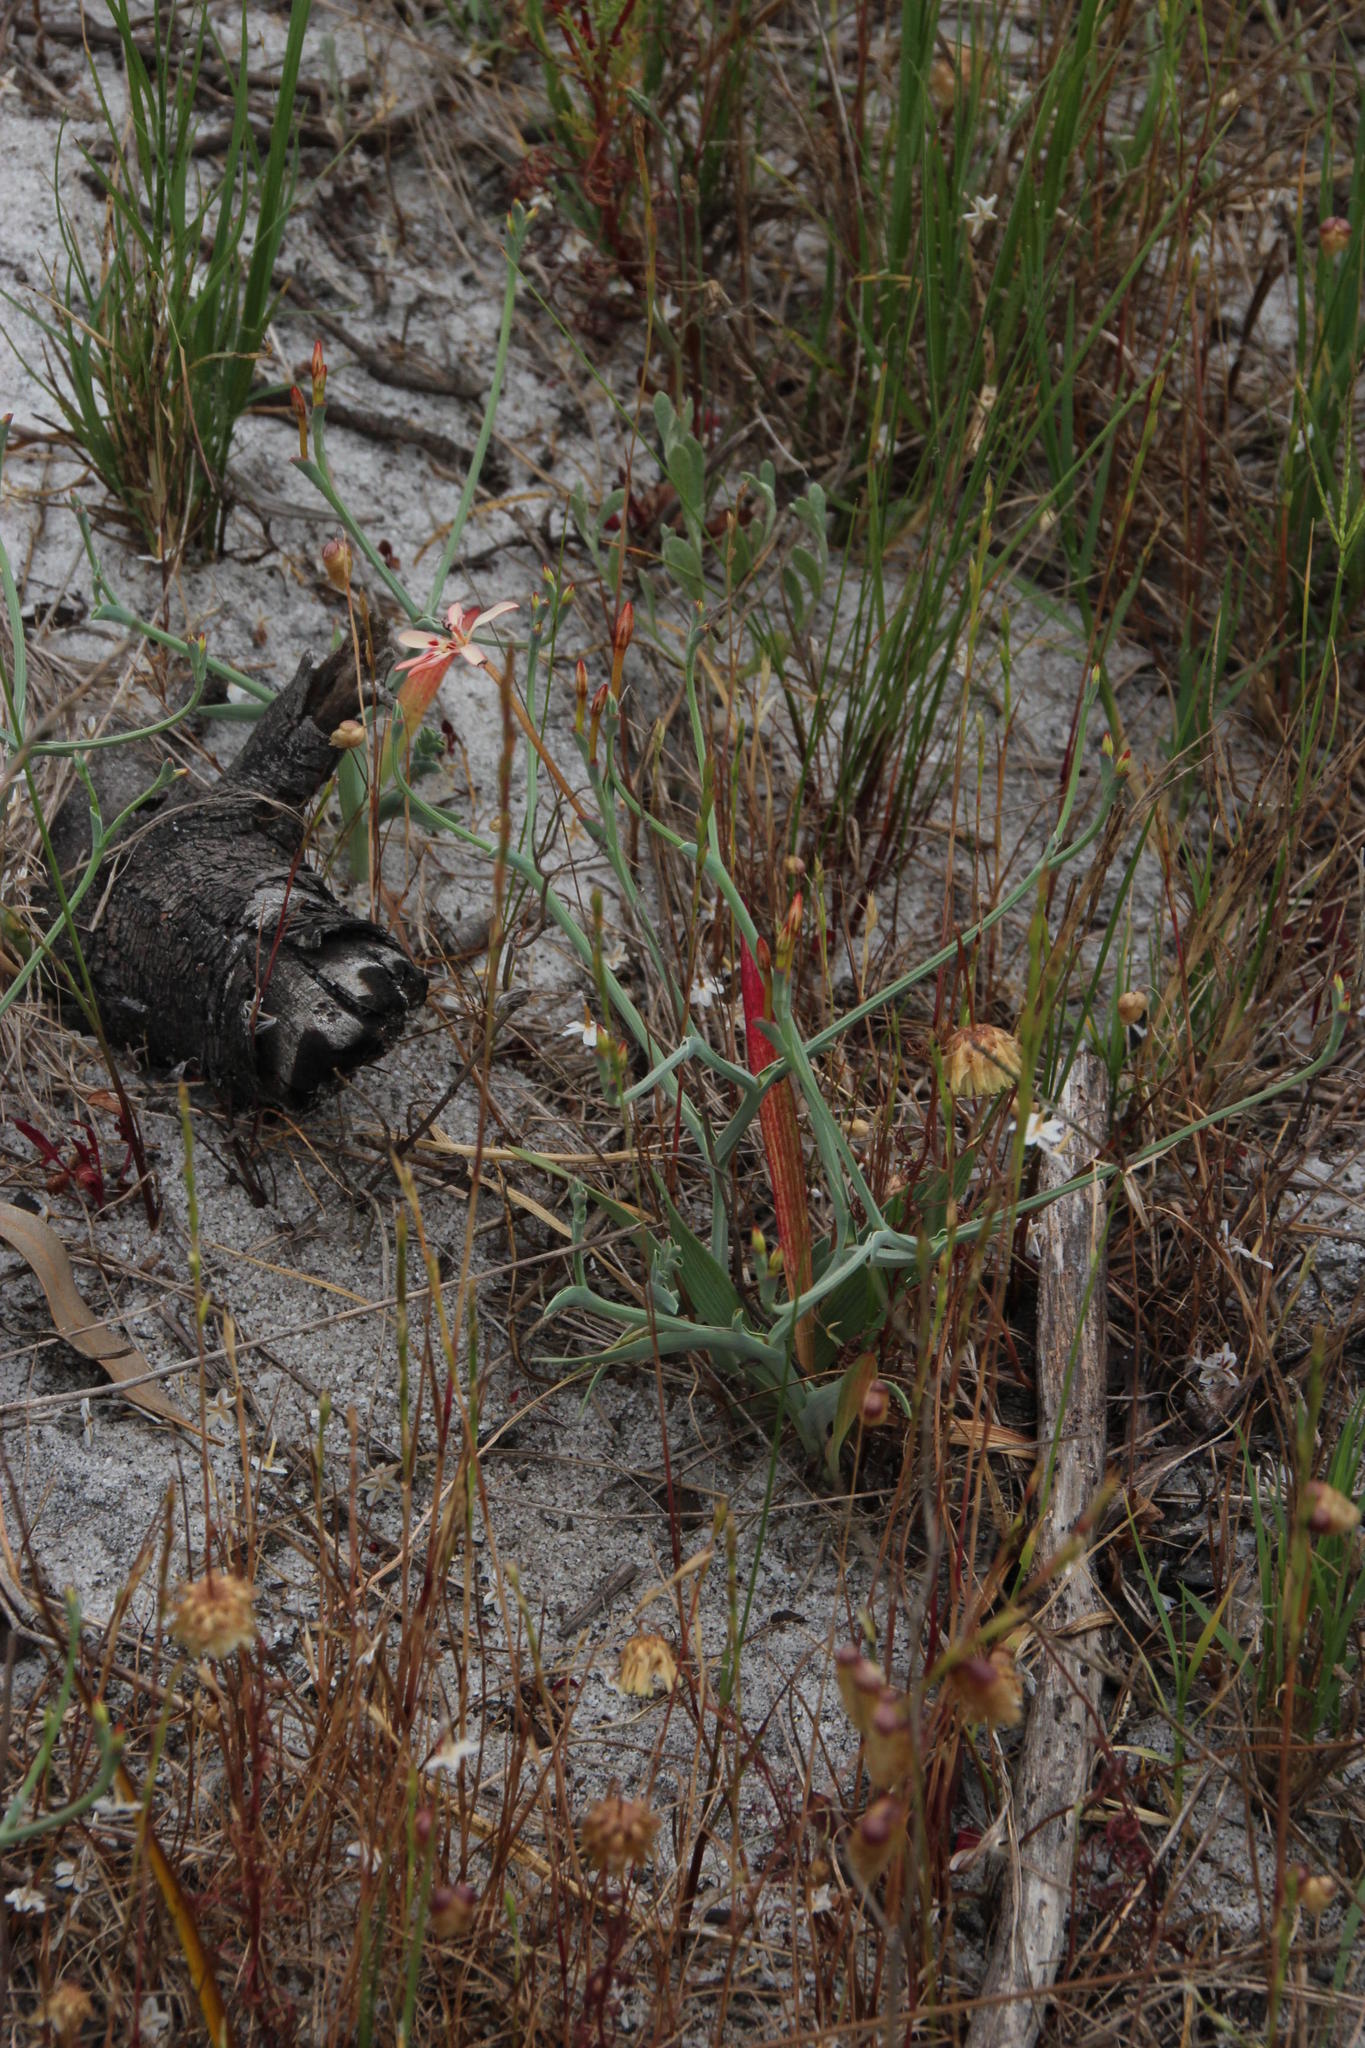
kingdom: Plantae
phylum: Tracheophyta
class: Liliopsida
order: Asparagales
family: Iridaceae
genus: Lapeirousia
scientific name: Lapeirousia anceps
